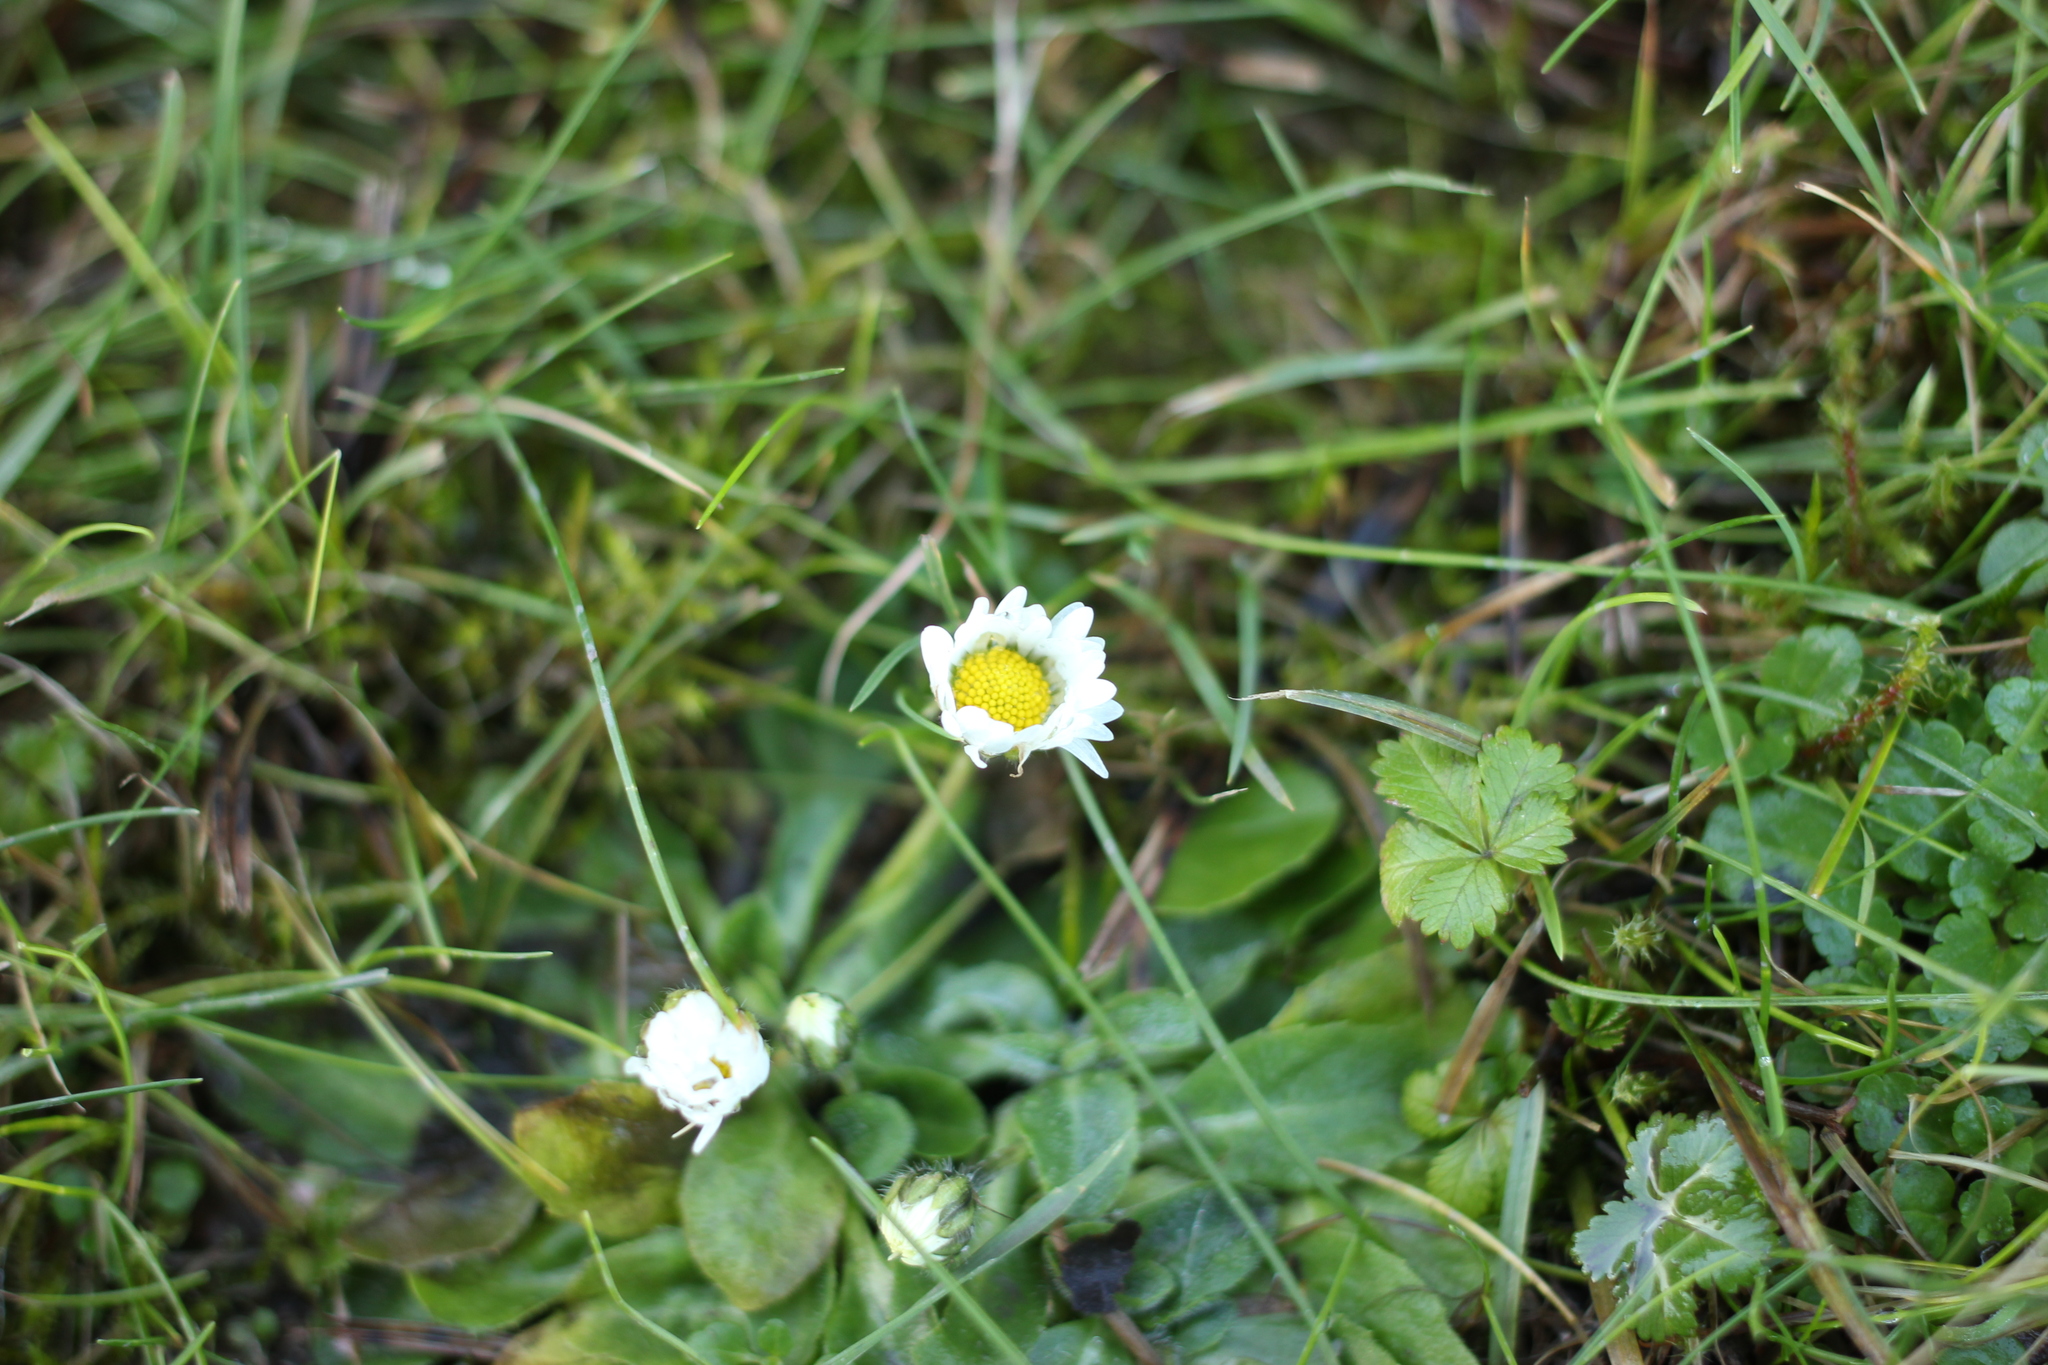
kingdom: Plantae
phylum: Tracheophyta
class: Magnoliopsida
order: Asterales
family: Asteraceae
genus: Bellis
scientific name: Bellis perennis
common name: Lawndaisy
